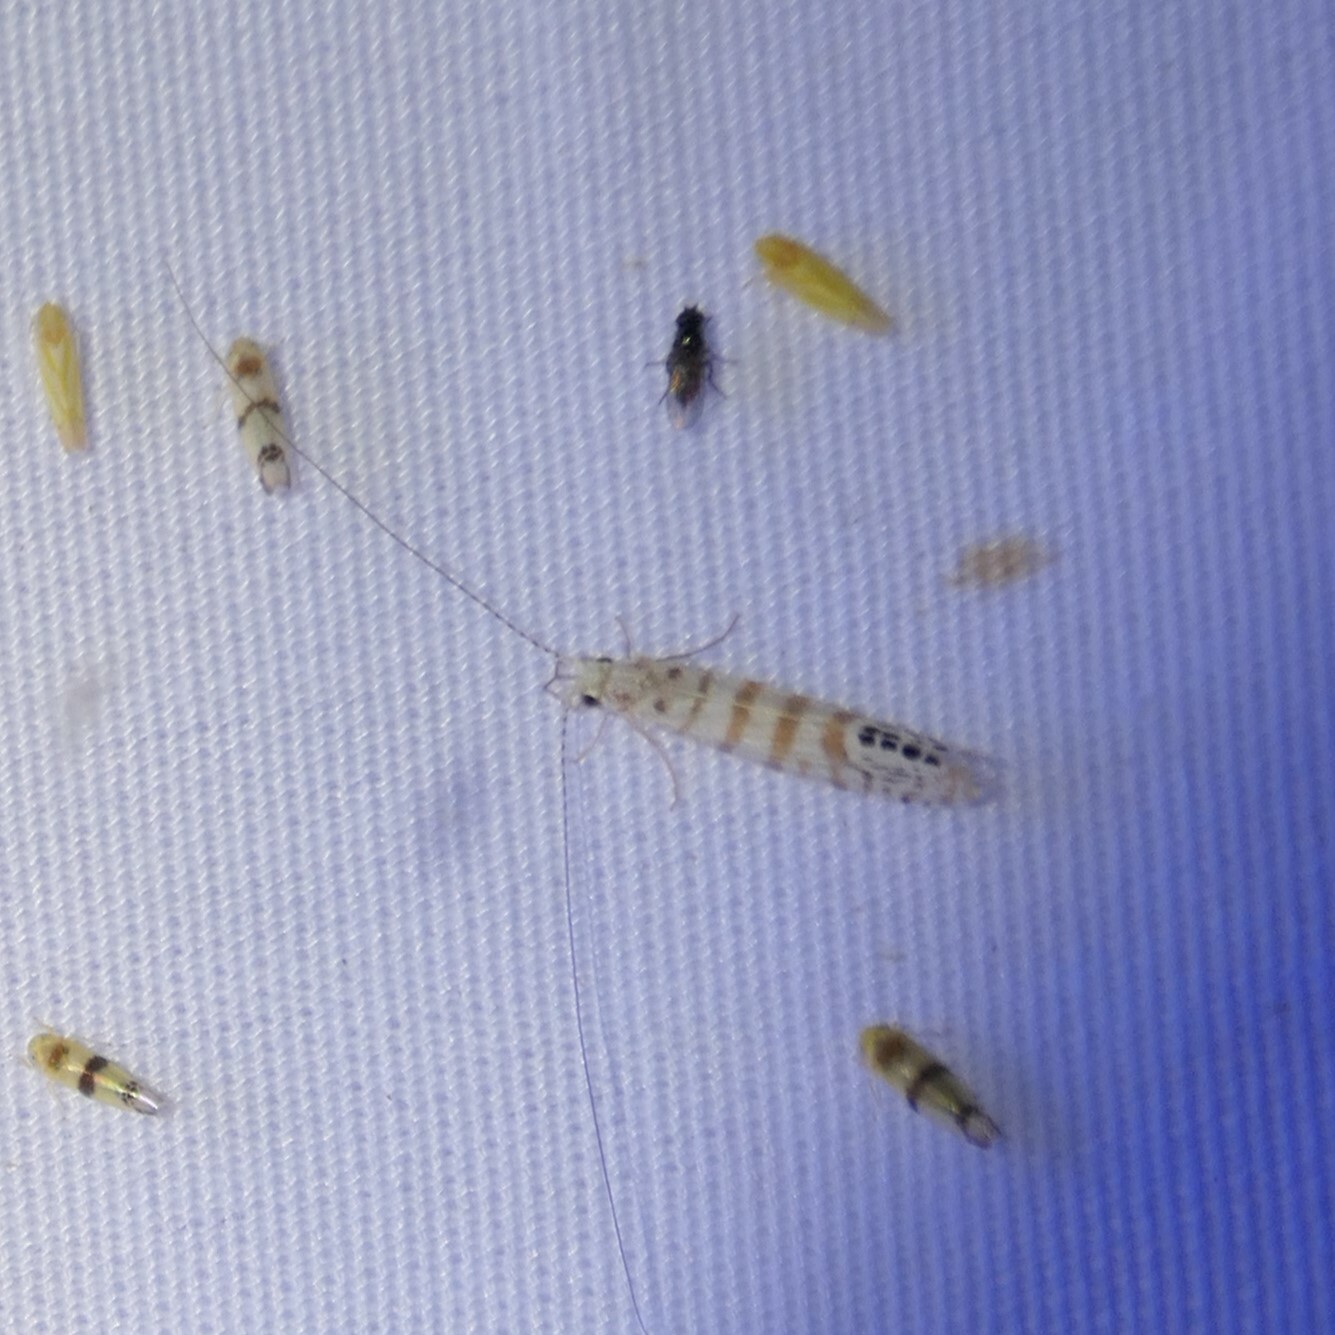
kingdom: Animalia
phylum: Arthropoda
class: Insecta
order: Trichoptera
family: Leptoceridae
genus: Nectopsyche
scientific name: Nectopsyche exquisita
